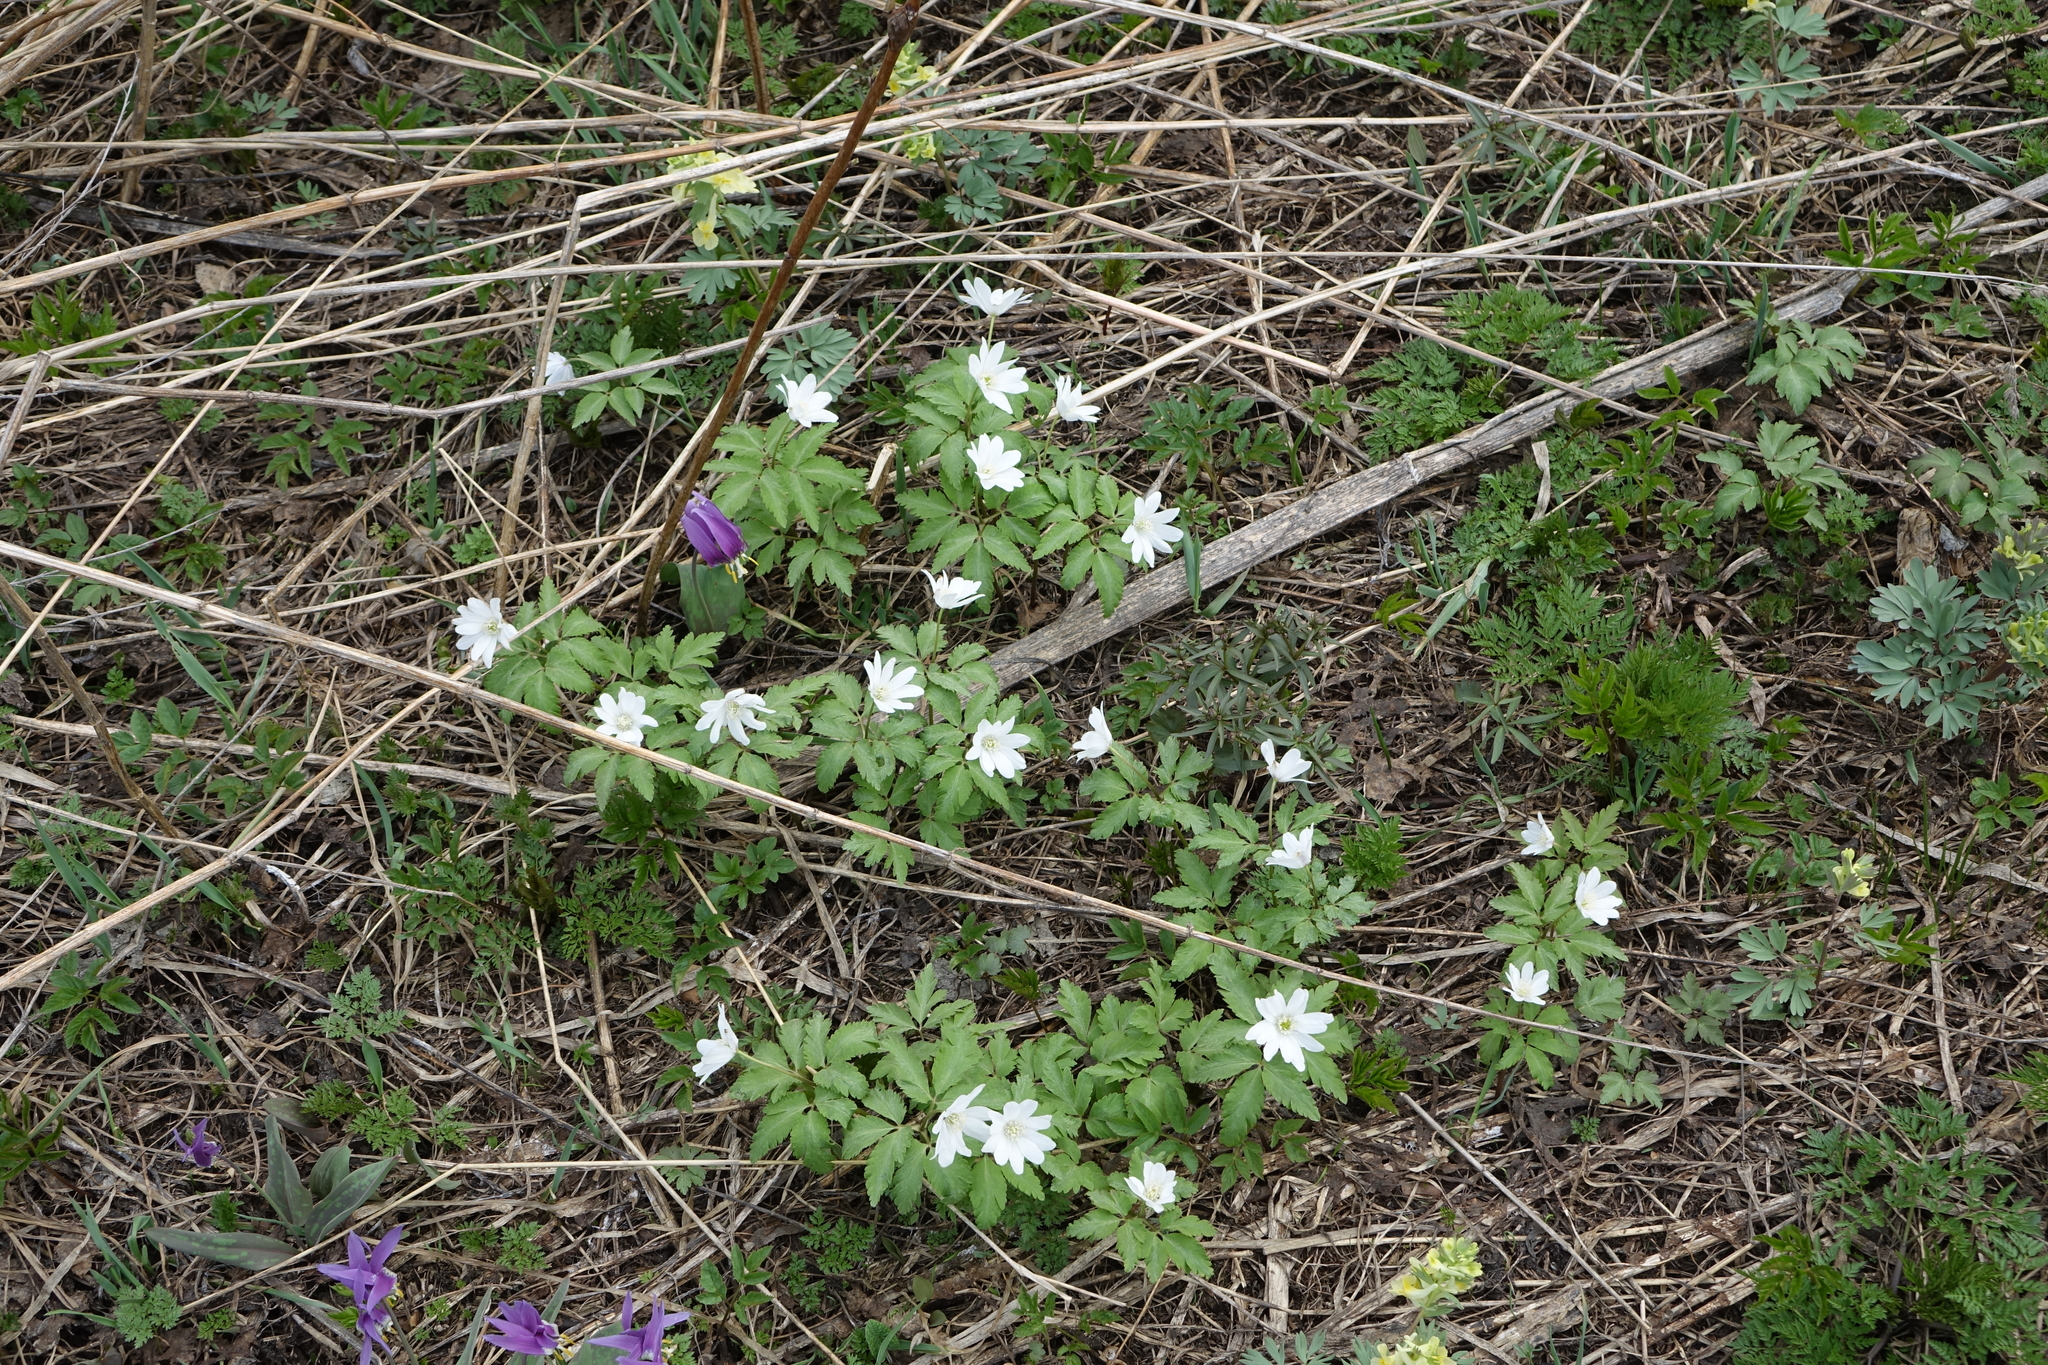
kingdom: Plantae
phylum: Tracheophyta
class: Magnoliopsida
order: Ranunculales
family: Ranunculaceae
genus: Anemone
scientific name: Anemone altaica
